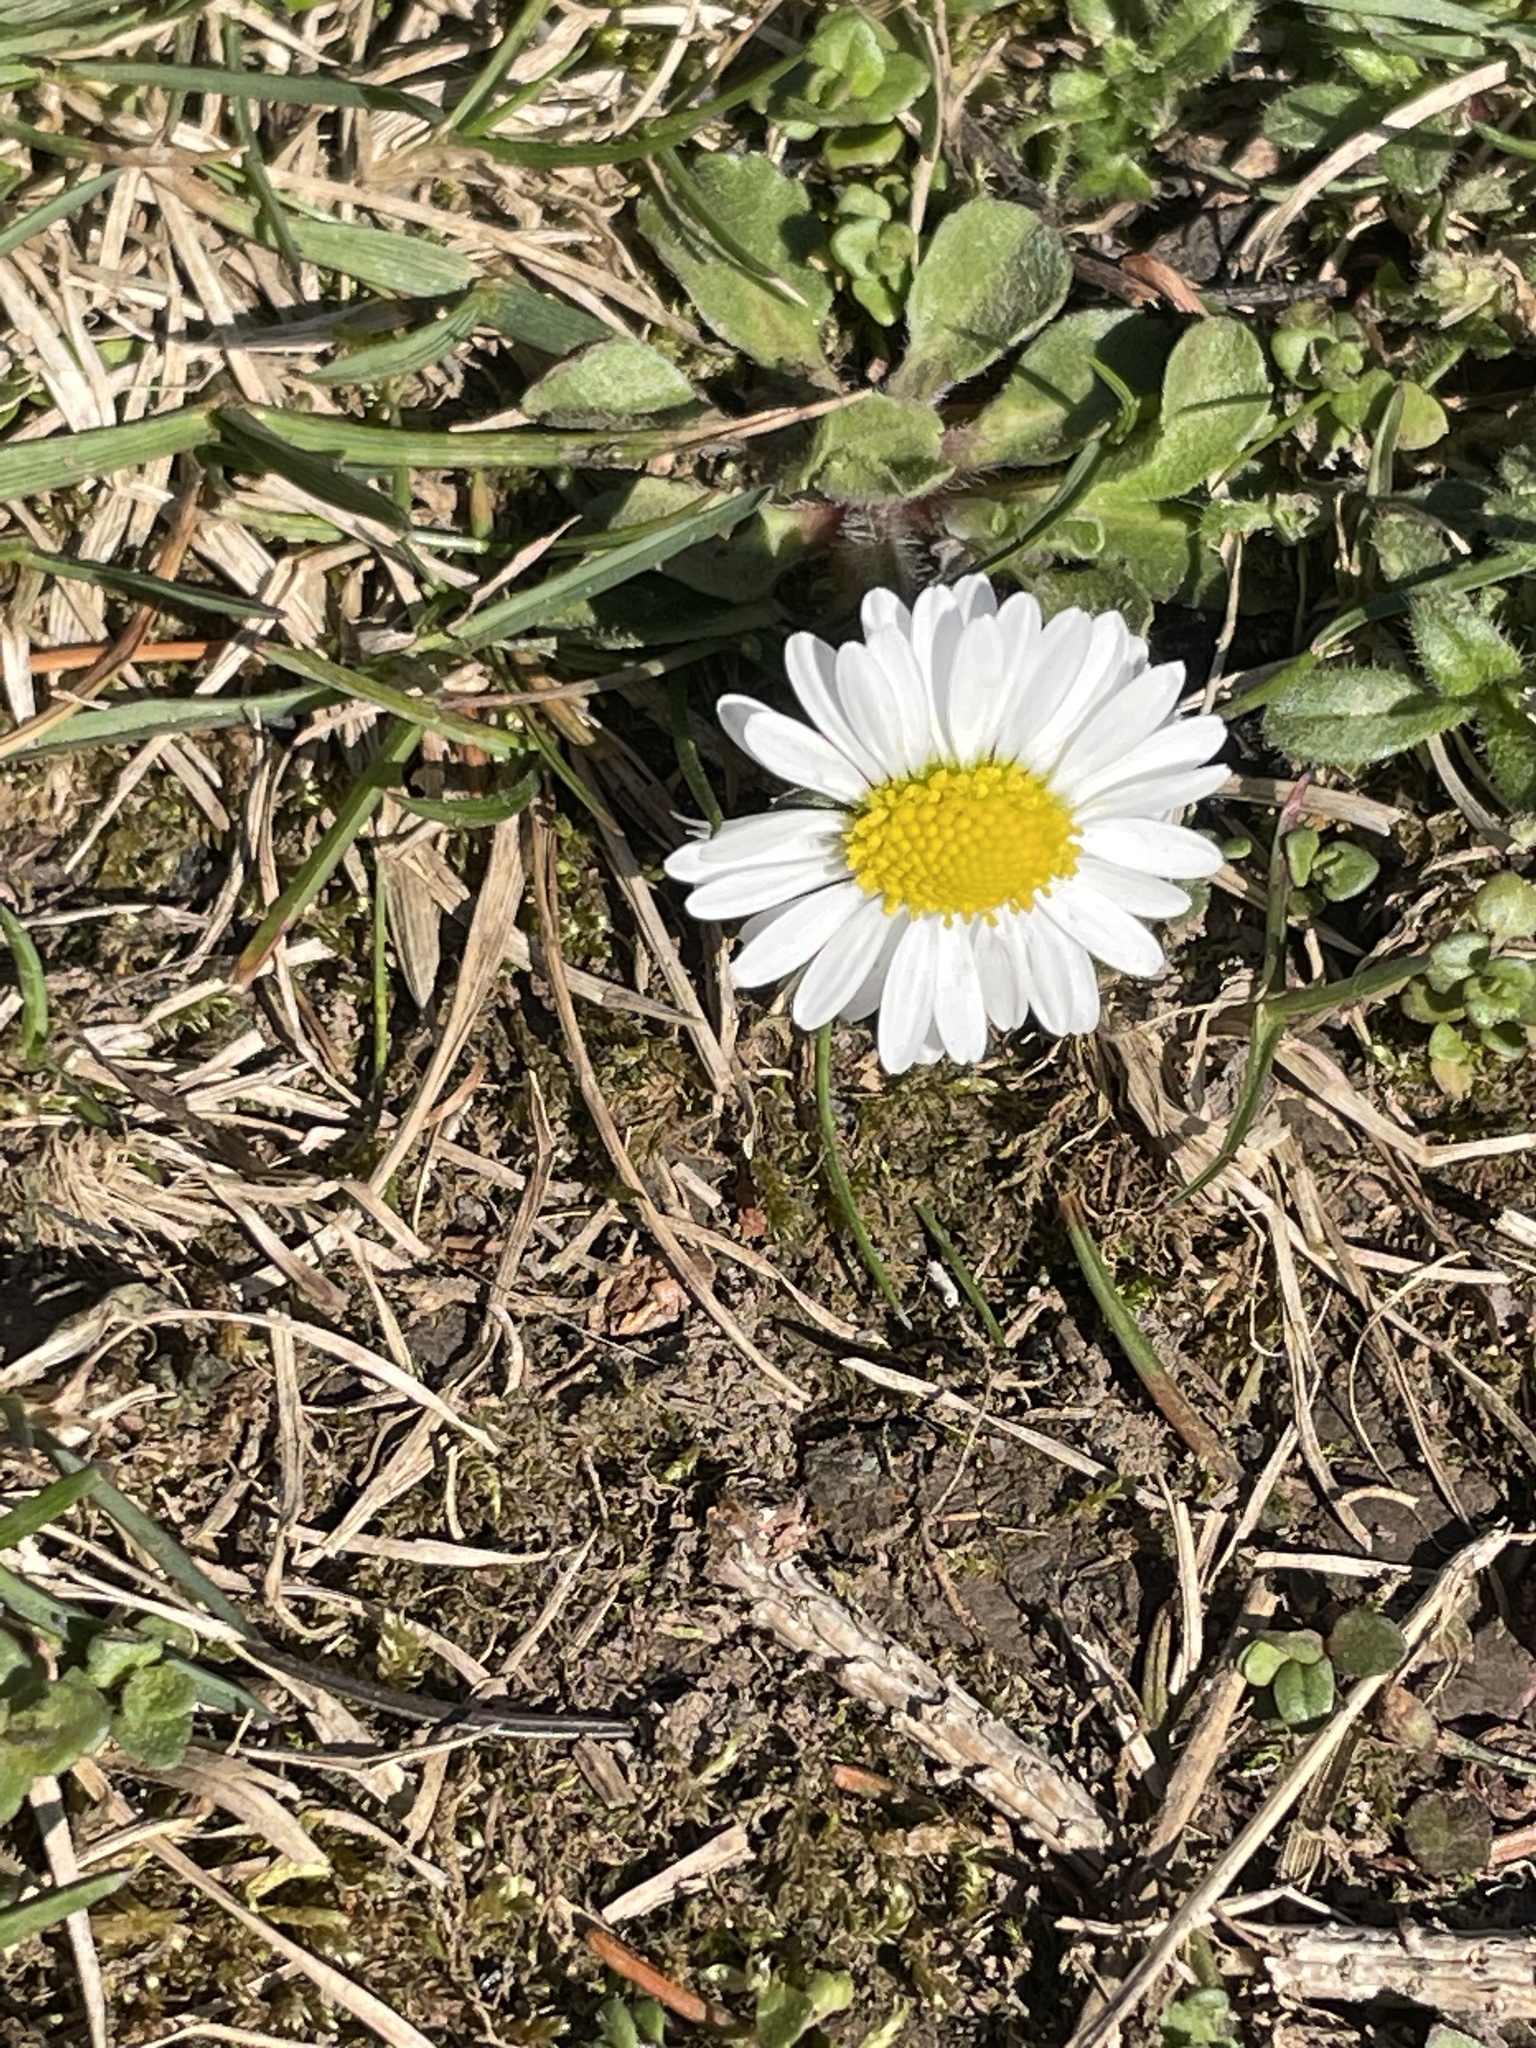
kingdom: Plantae
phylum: Tracheophyta
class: Magnoliopsida
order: Asterales
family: Asteraceae
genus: Bellis
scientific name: Bellis perennis
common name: Lawndaisy
